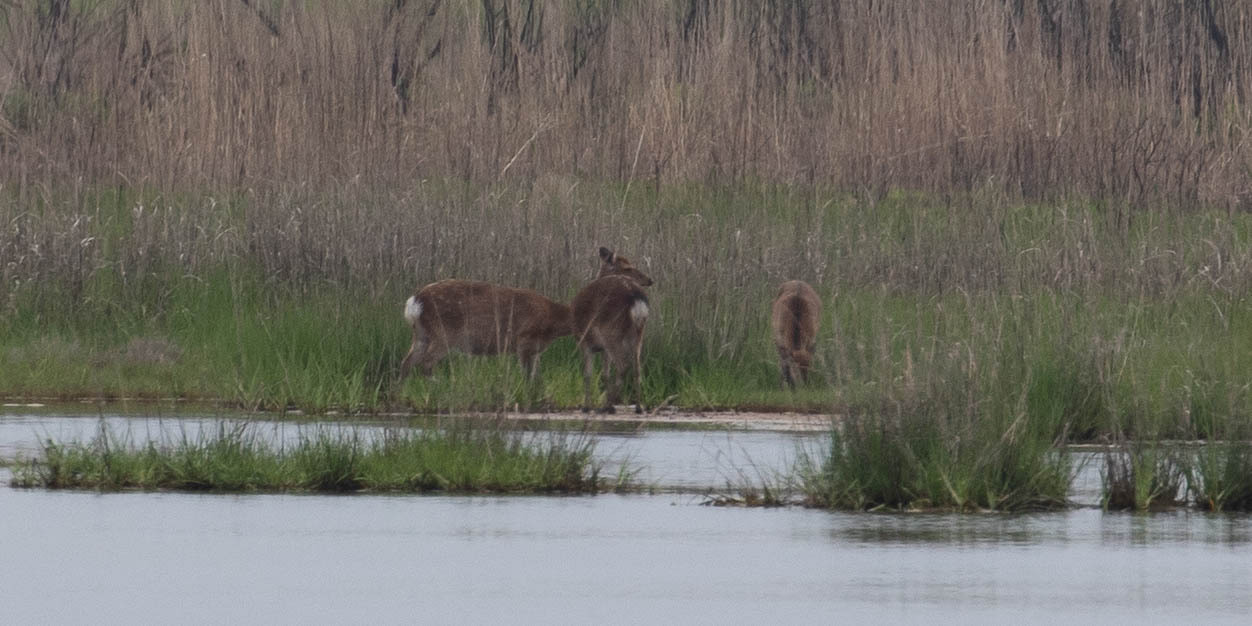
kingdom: Animalia
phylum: Chordata
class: Mammalia
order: Artiodactyla
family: Cervidae
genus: Cervus
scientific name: Cervus nippon
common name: Sika deer
